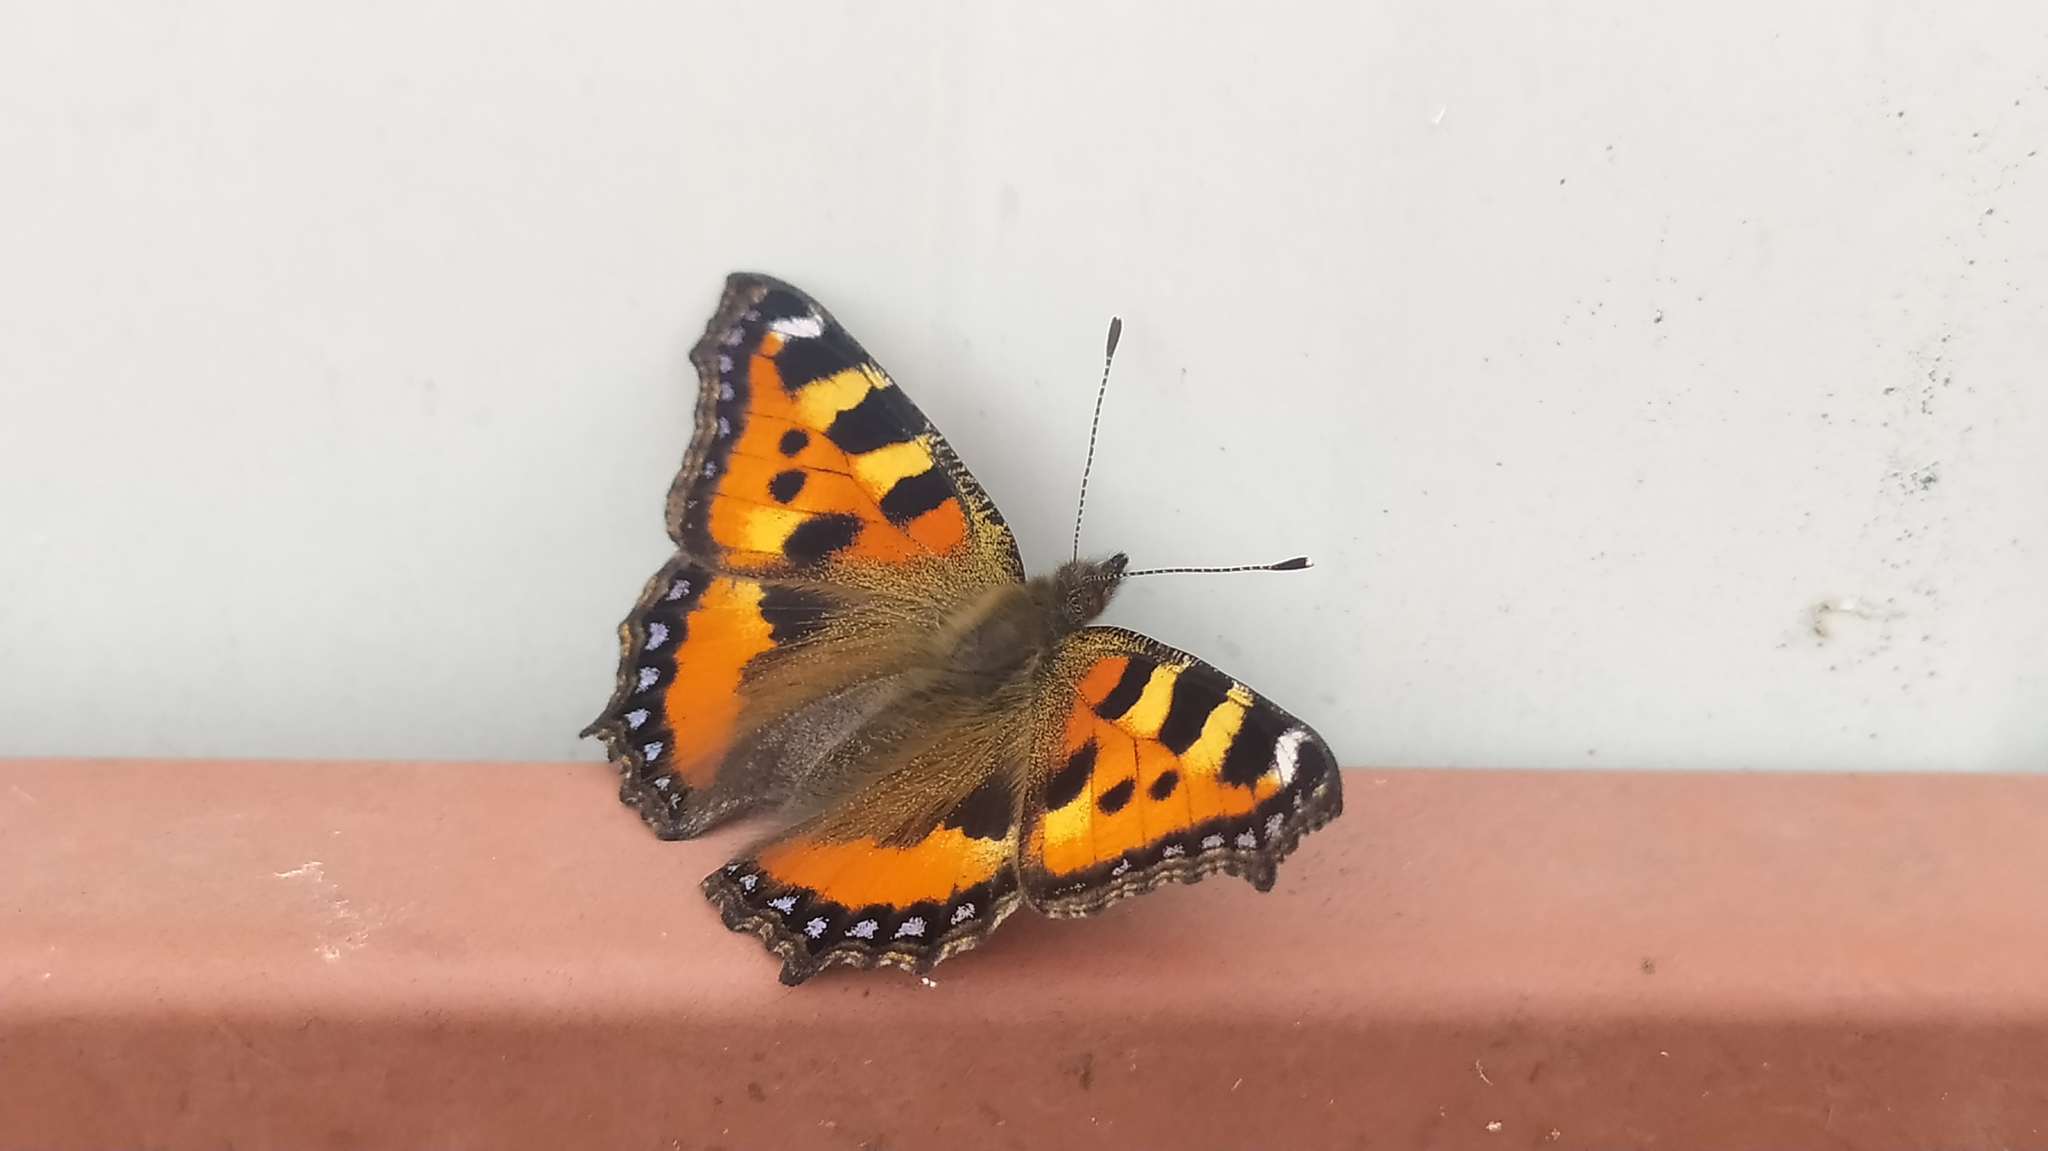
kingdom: Animalia
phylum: Arthropoda
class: Insecta
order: Lepidoptera
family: Nymphalidae
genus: Aglais
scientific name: Aglais urticae
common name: Small tortoiseshell
